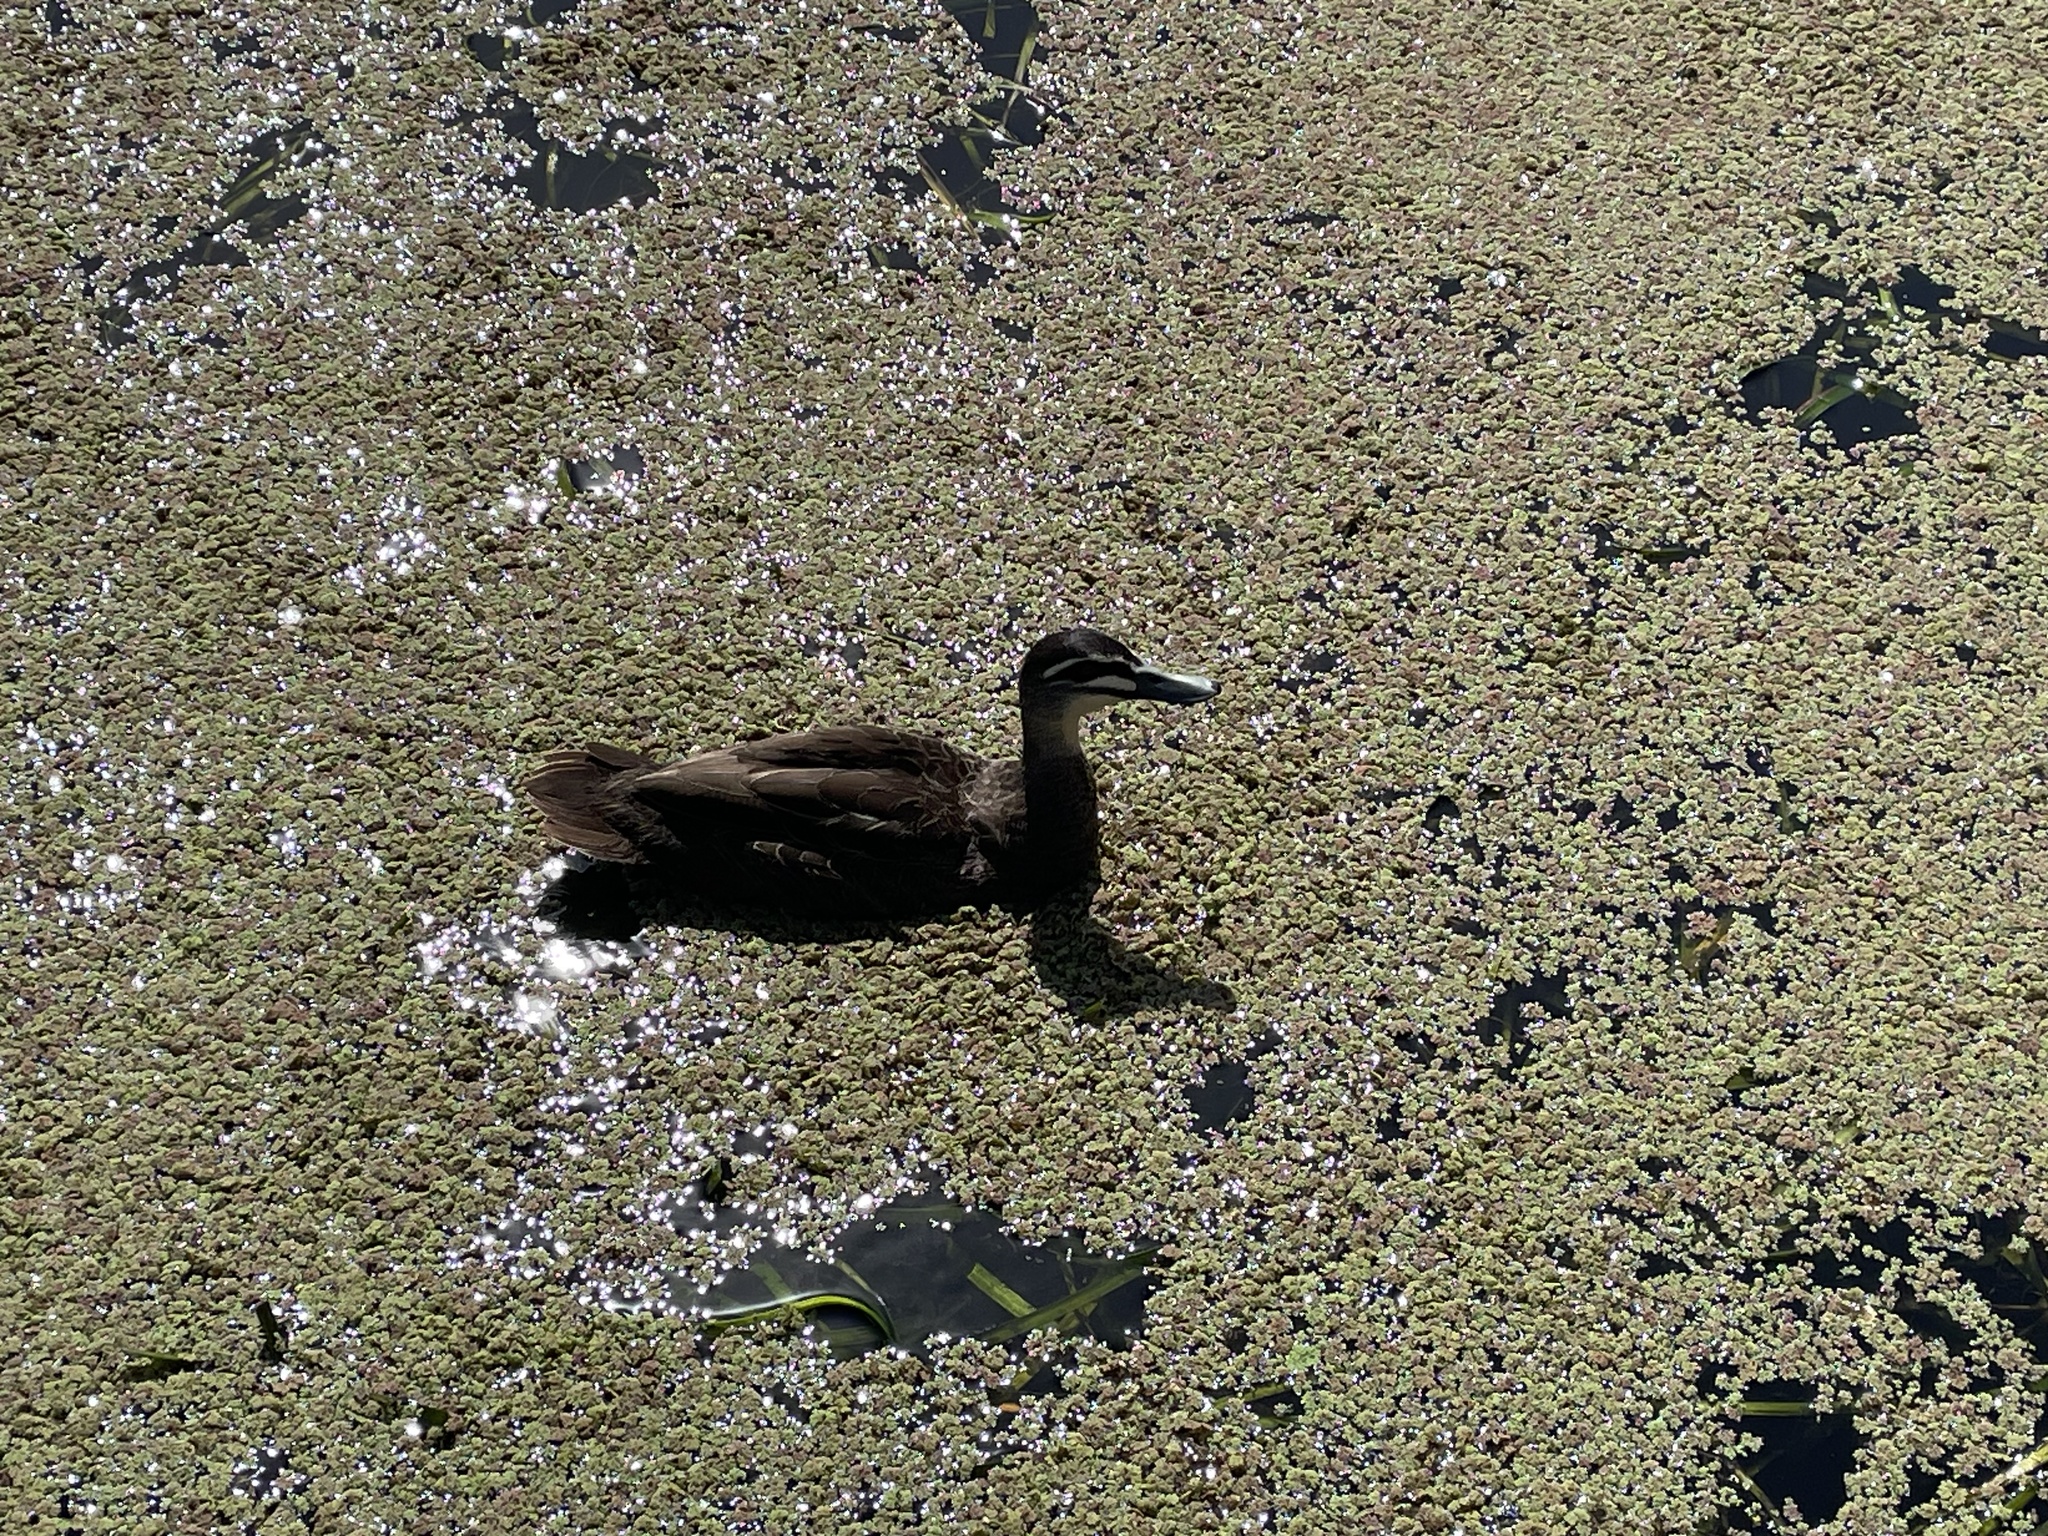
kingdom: Animalia
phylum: Chordata
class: Aves
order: Anseriformes
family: Anatidae
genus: Anas
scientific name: Anas superciliosa
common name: Pacific black duck
